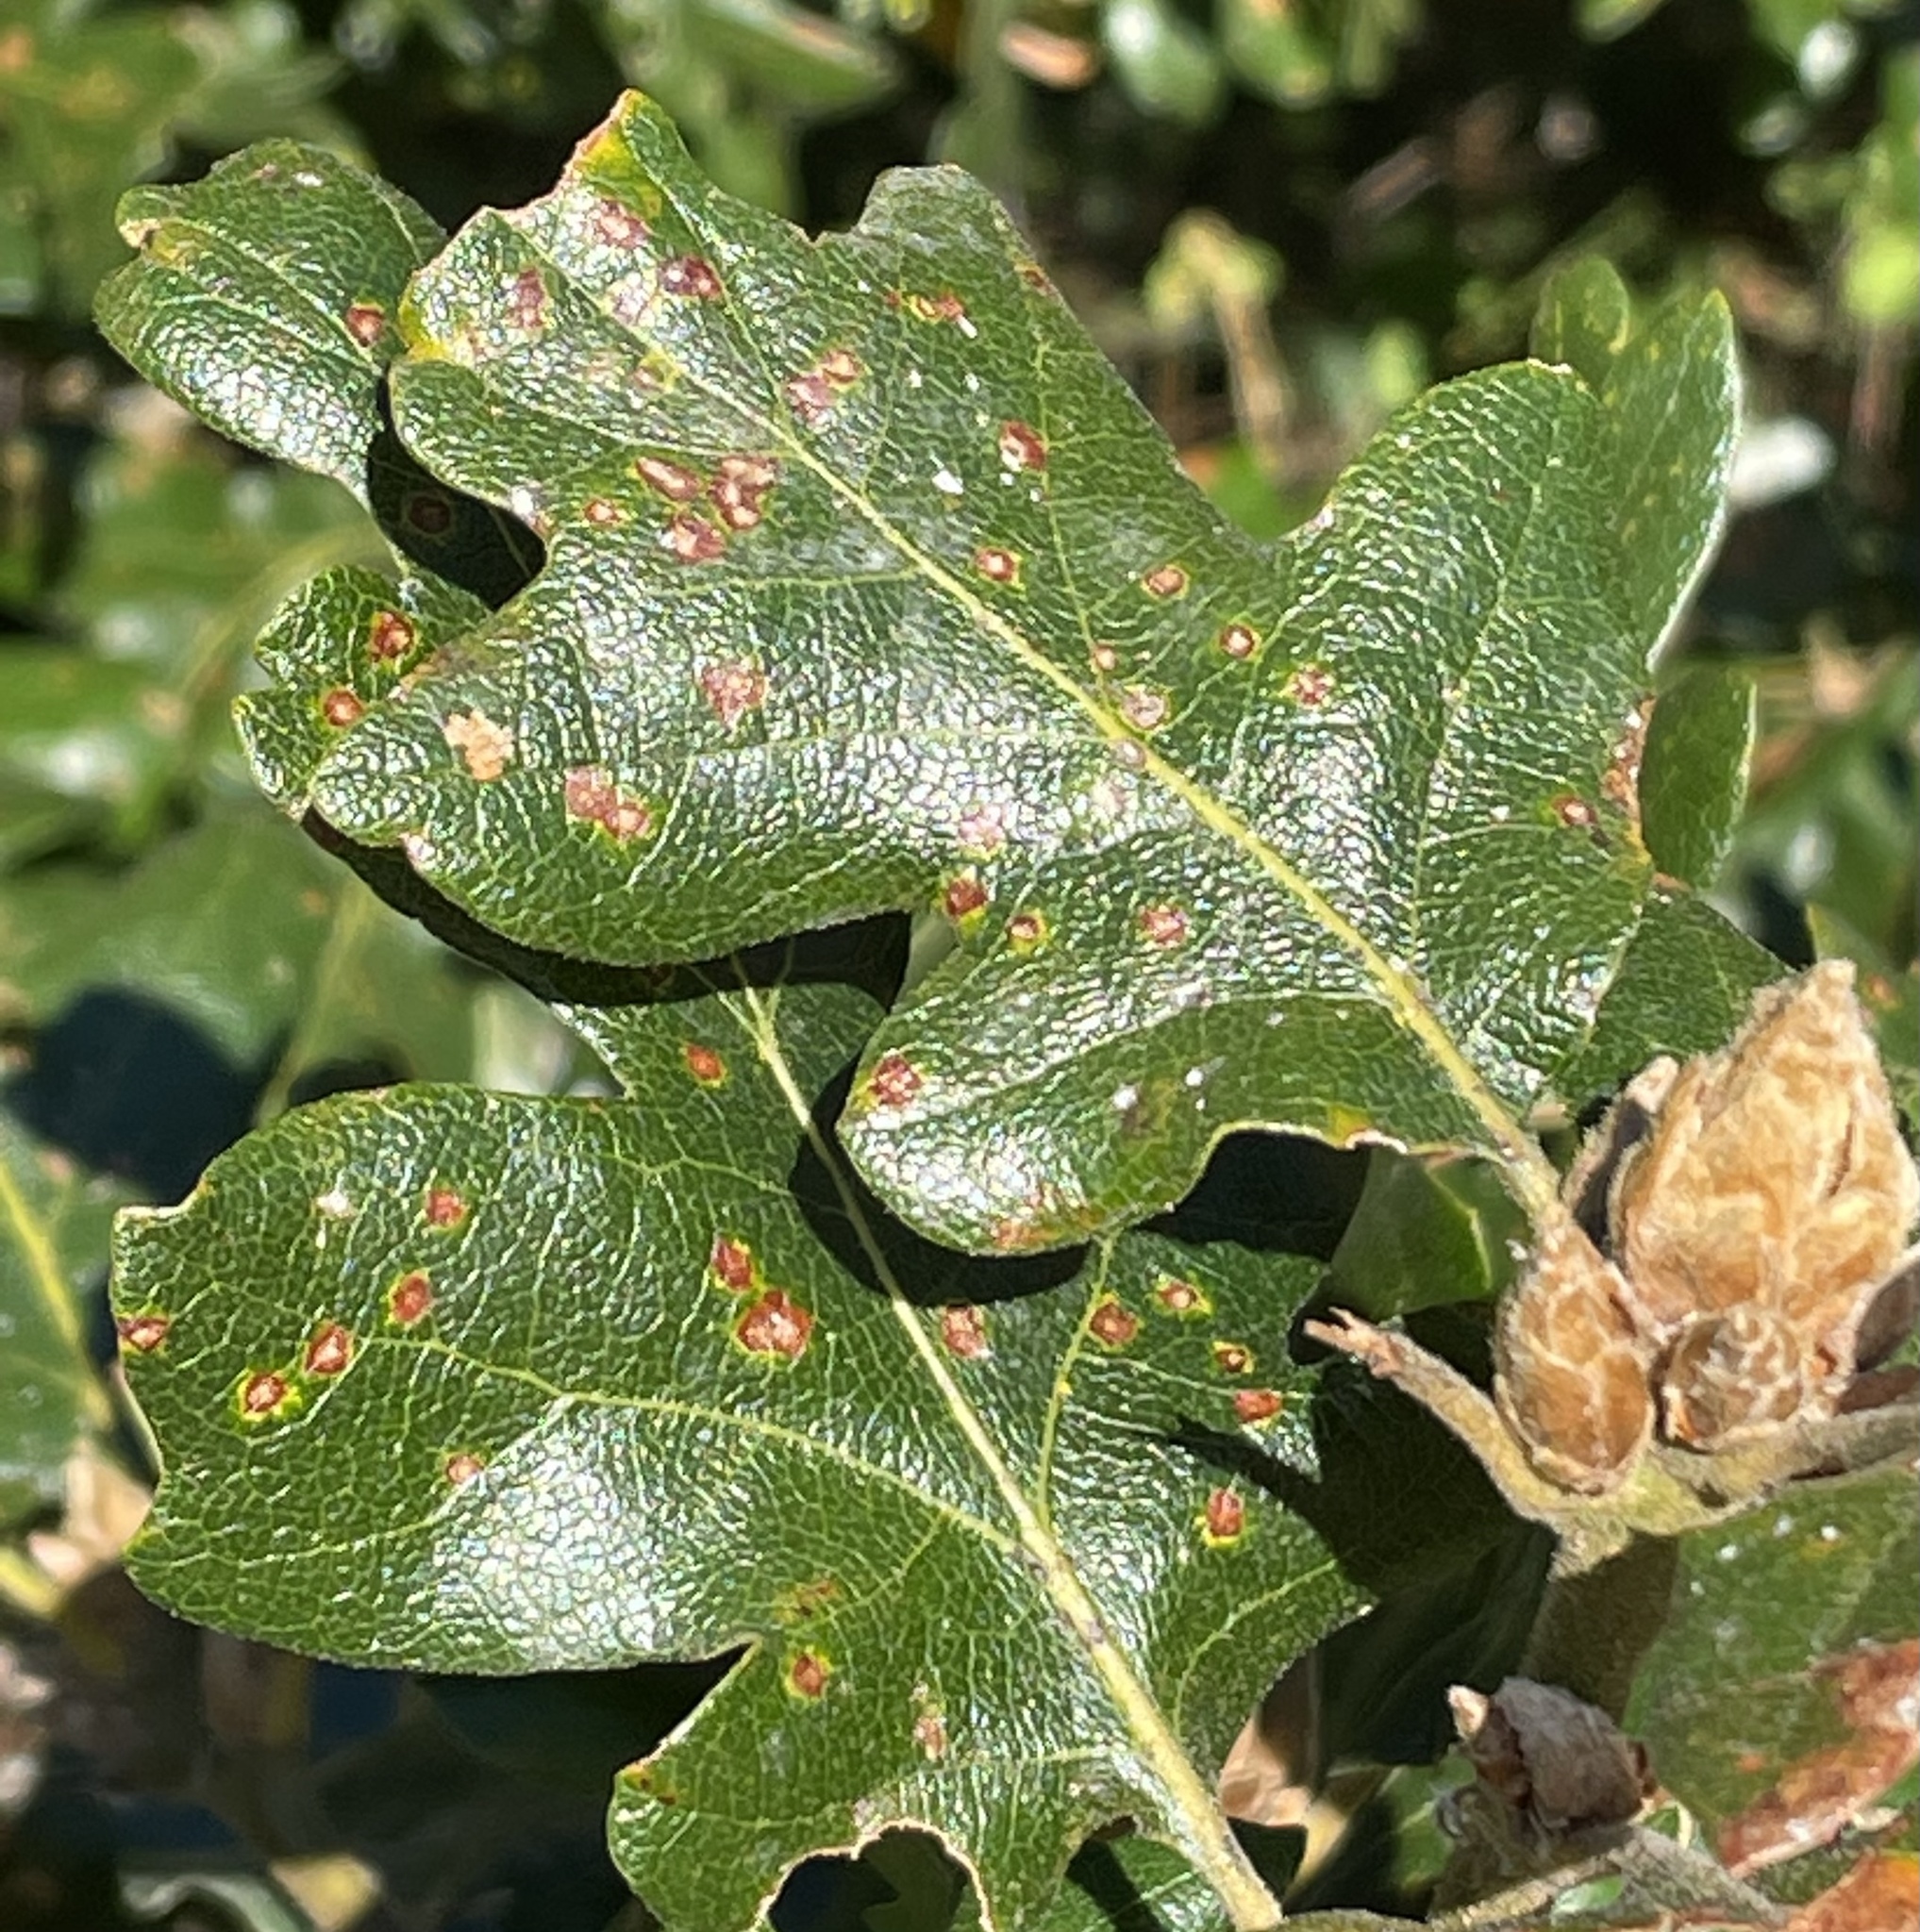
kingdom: Animalia
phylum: Arthropoda
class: Insecta
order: Hymenoptera
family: Cynipidae
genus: Neuroterus
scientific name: Neuroterus saltarius
